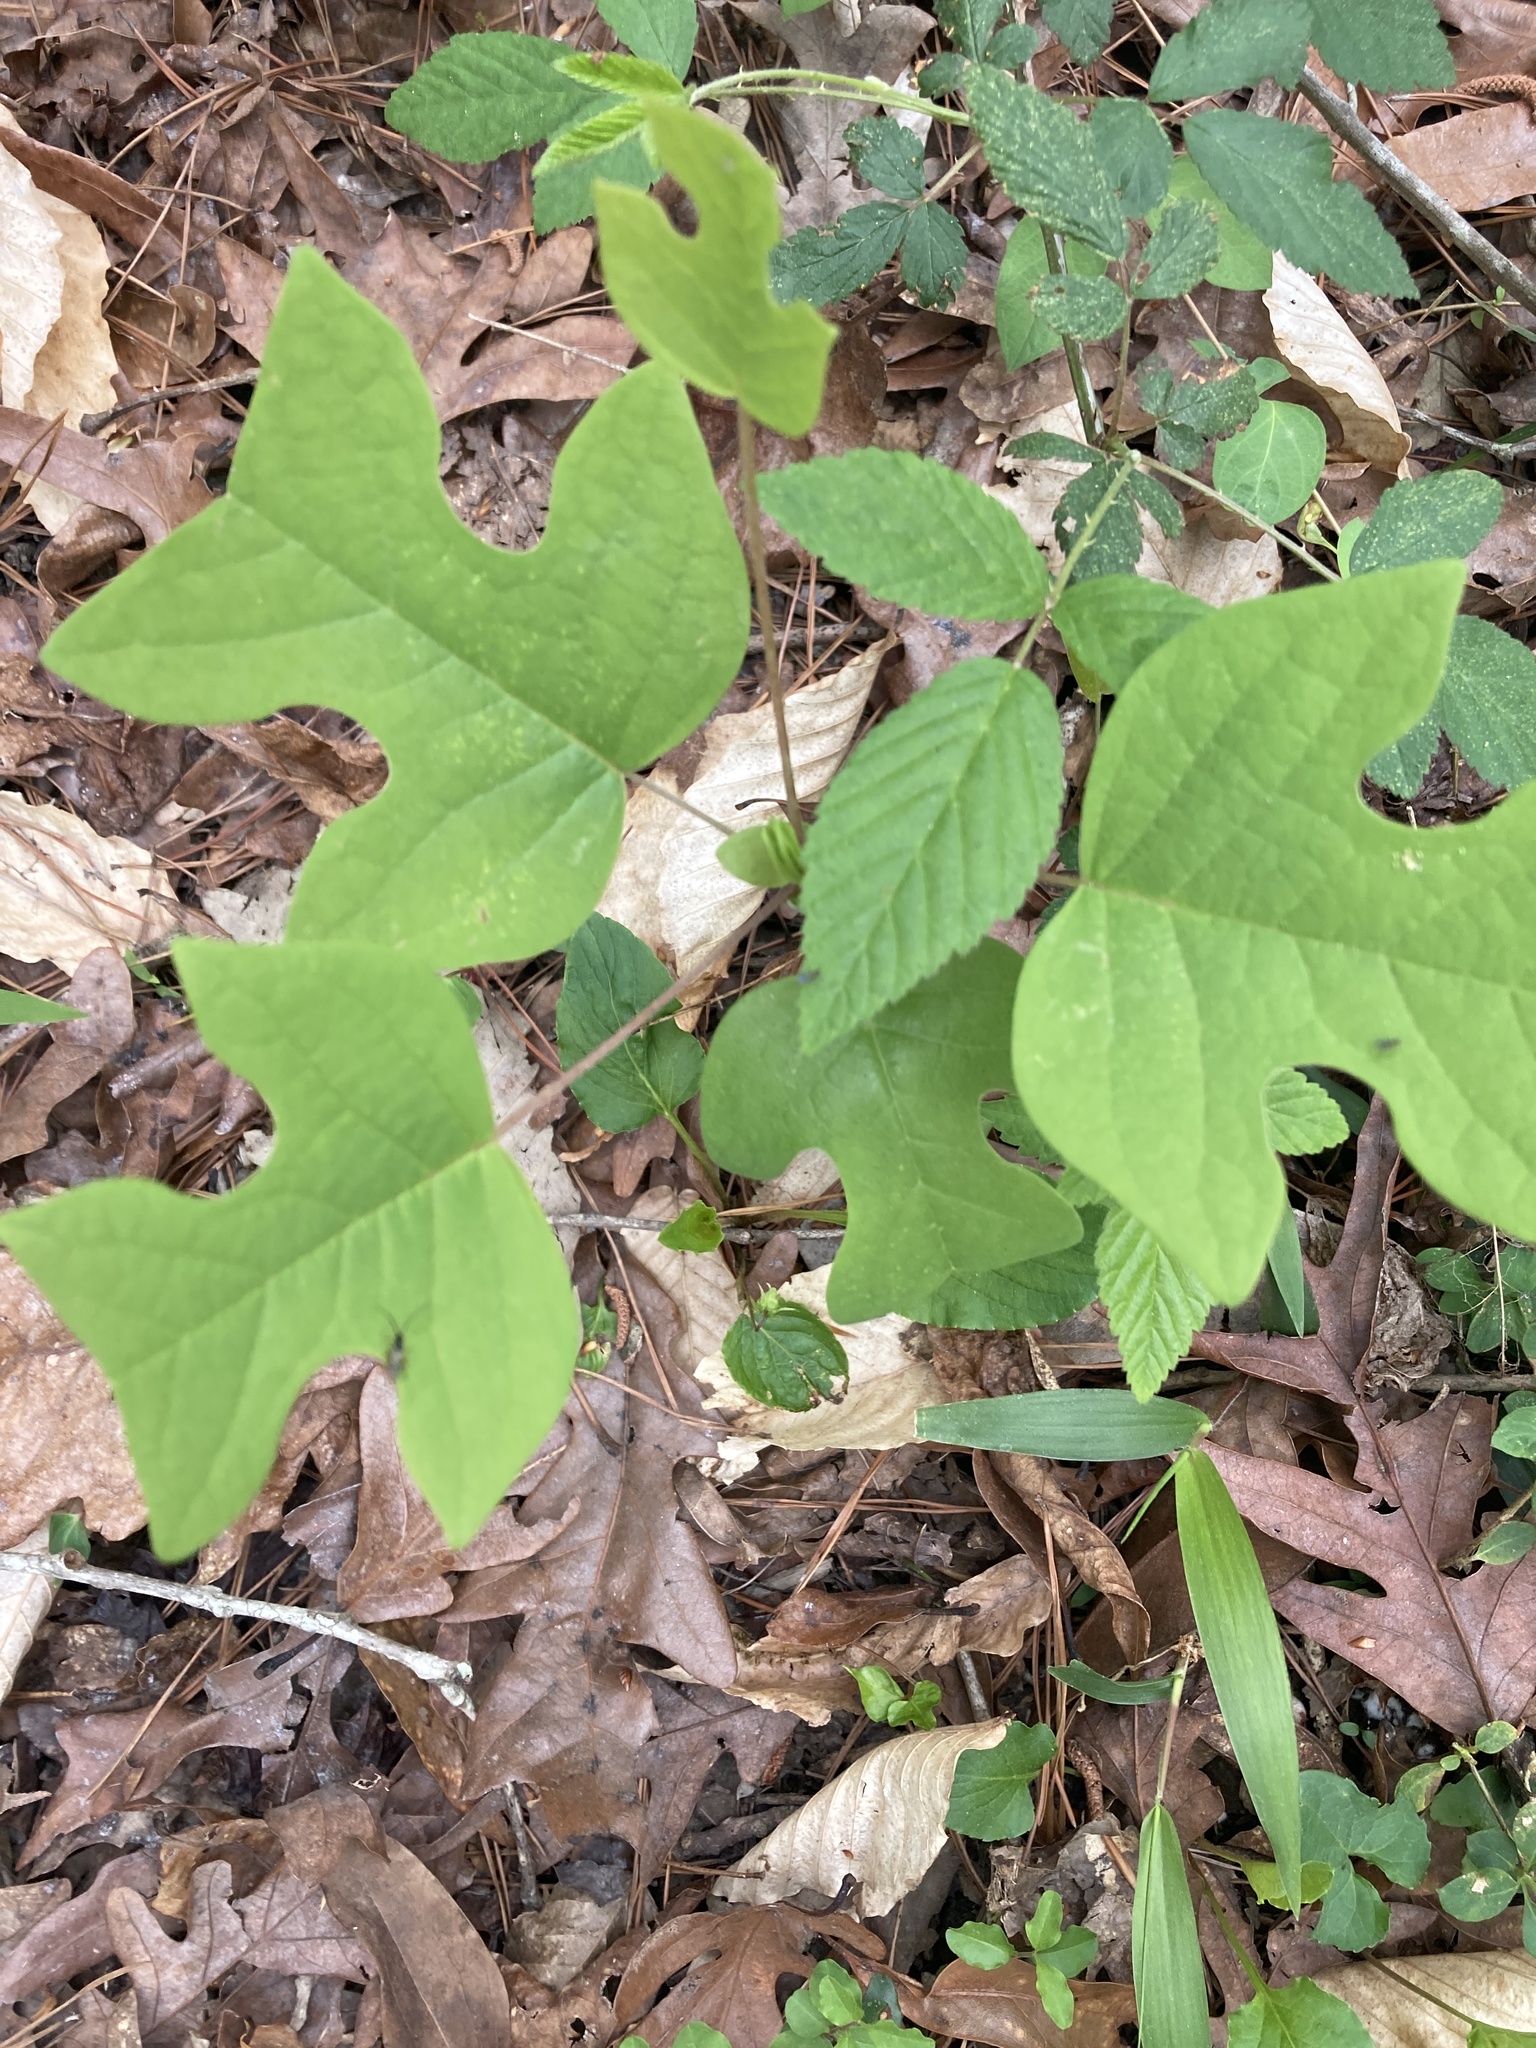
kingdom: Plantae
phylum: Tracheophyta
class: Magnoliopsida
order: Magnoliales
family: Magnoliaceae
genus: Liriodendron
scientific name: Liriodendron tulipifera
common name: Tulip tree
